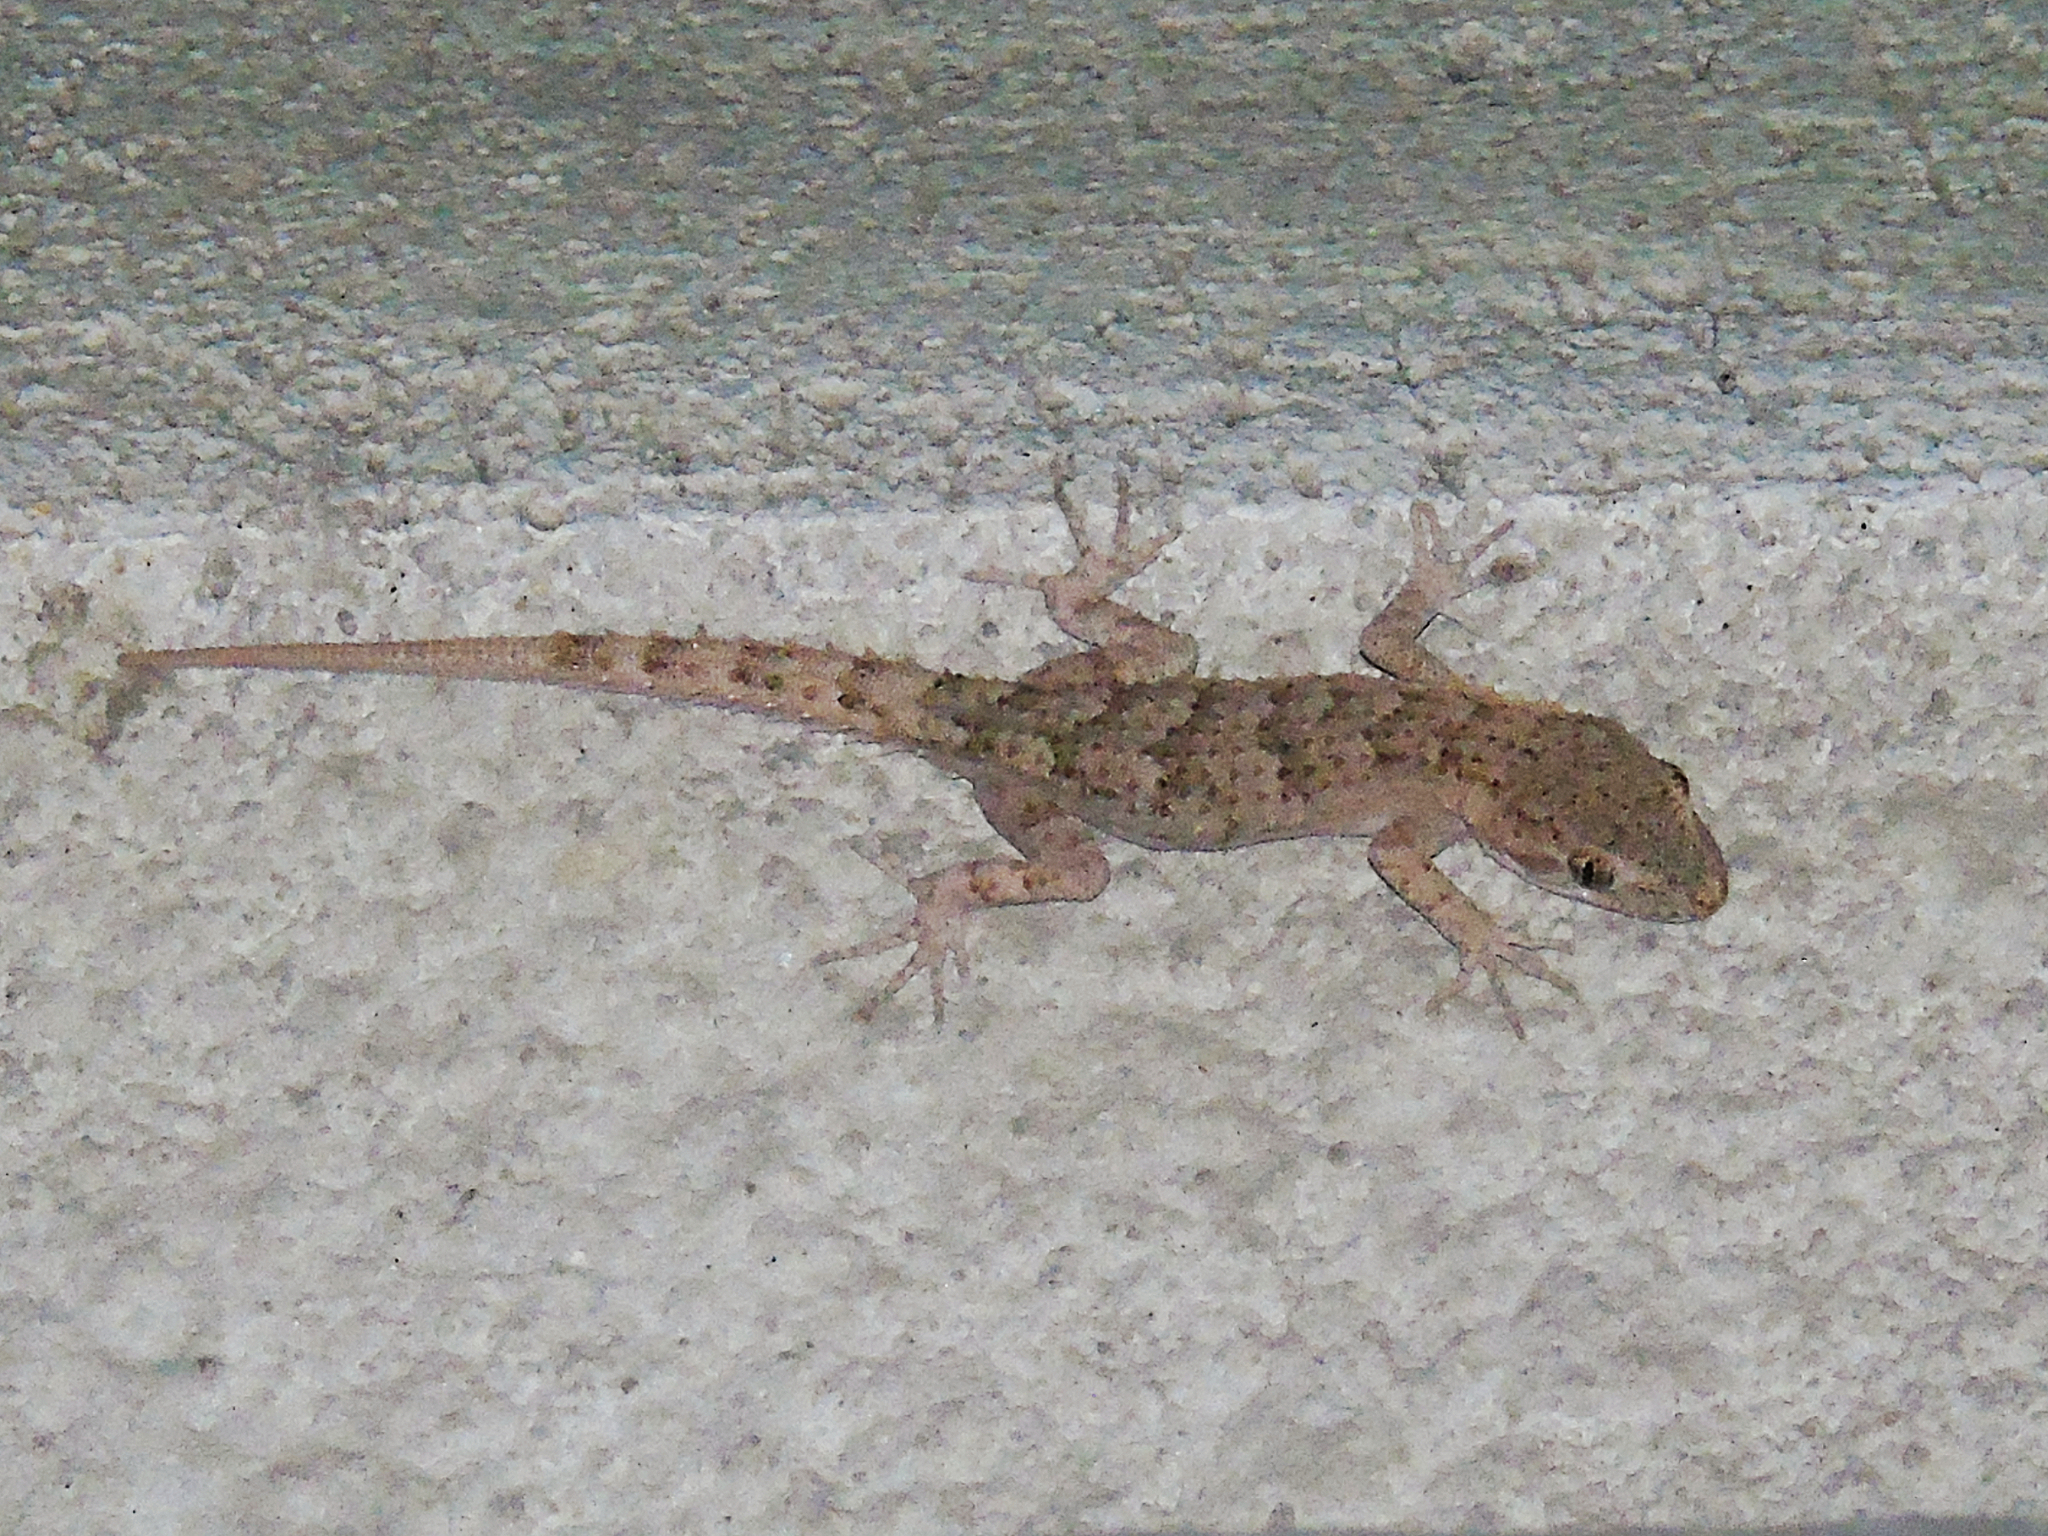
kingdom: Animalia
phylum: Chordata
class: Squamata
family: Gekkonidae
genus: Mediodactylus
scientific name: Mediodactylus russowii
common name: Grey thin-toed gecko
